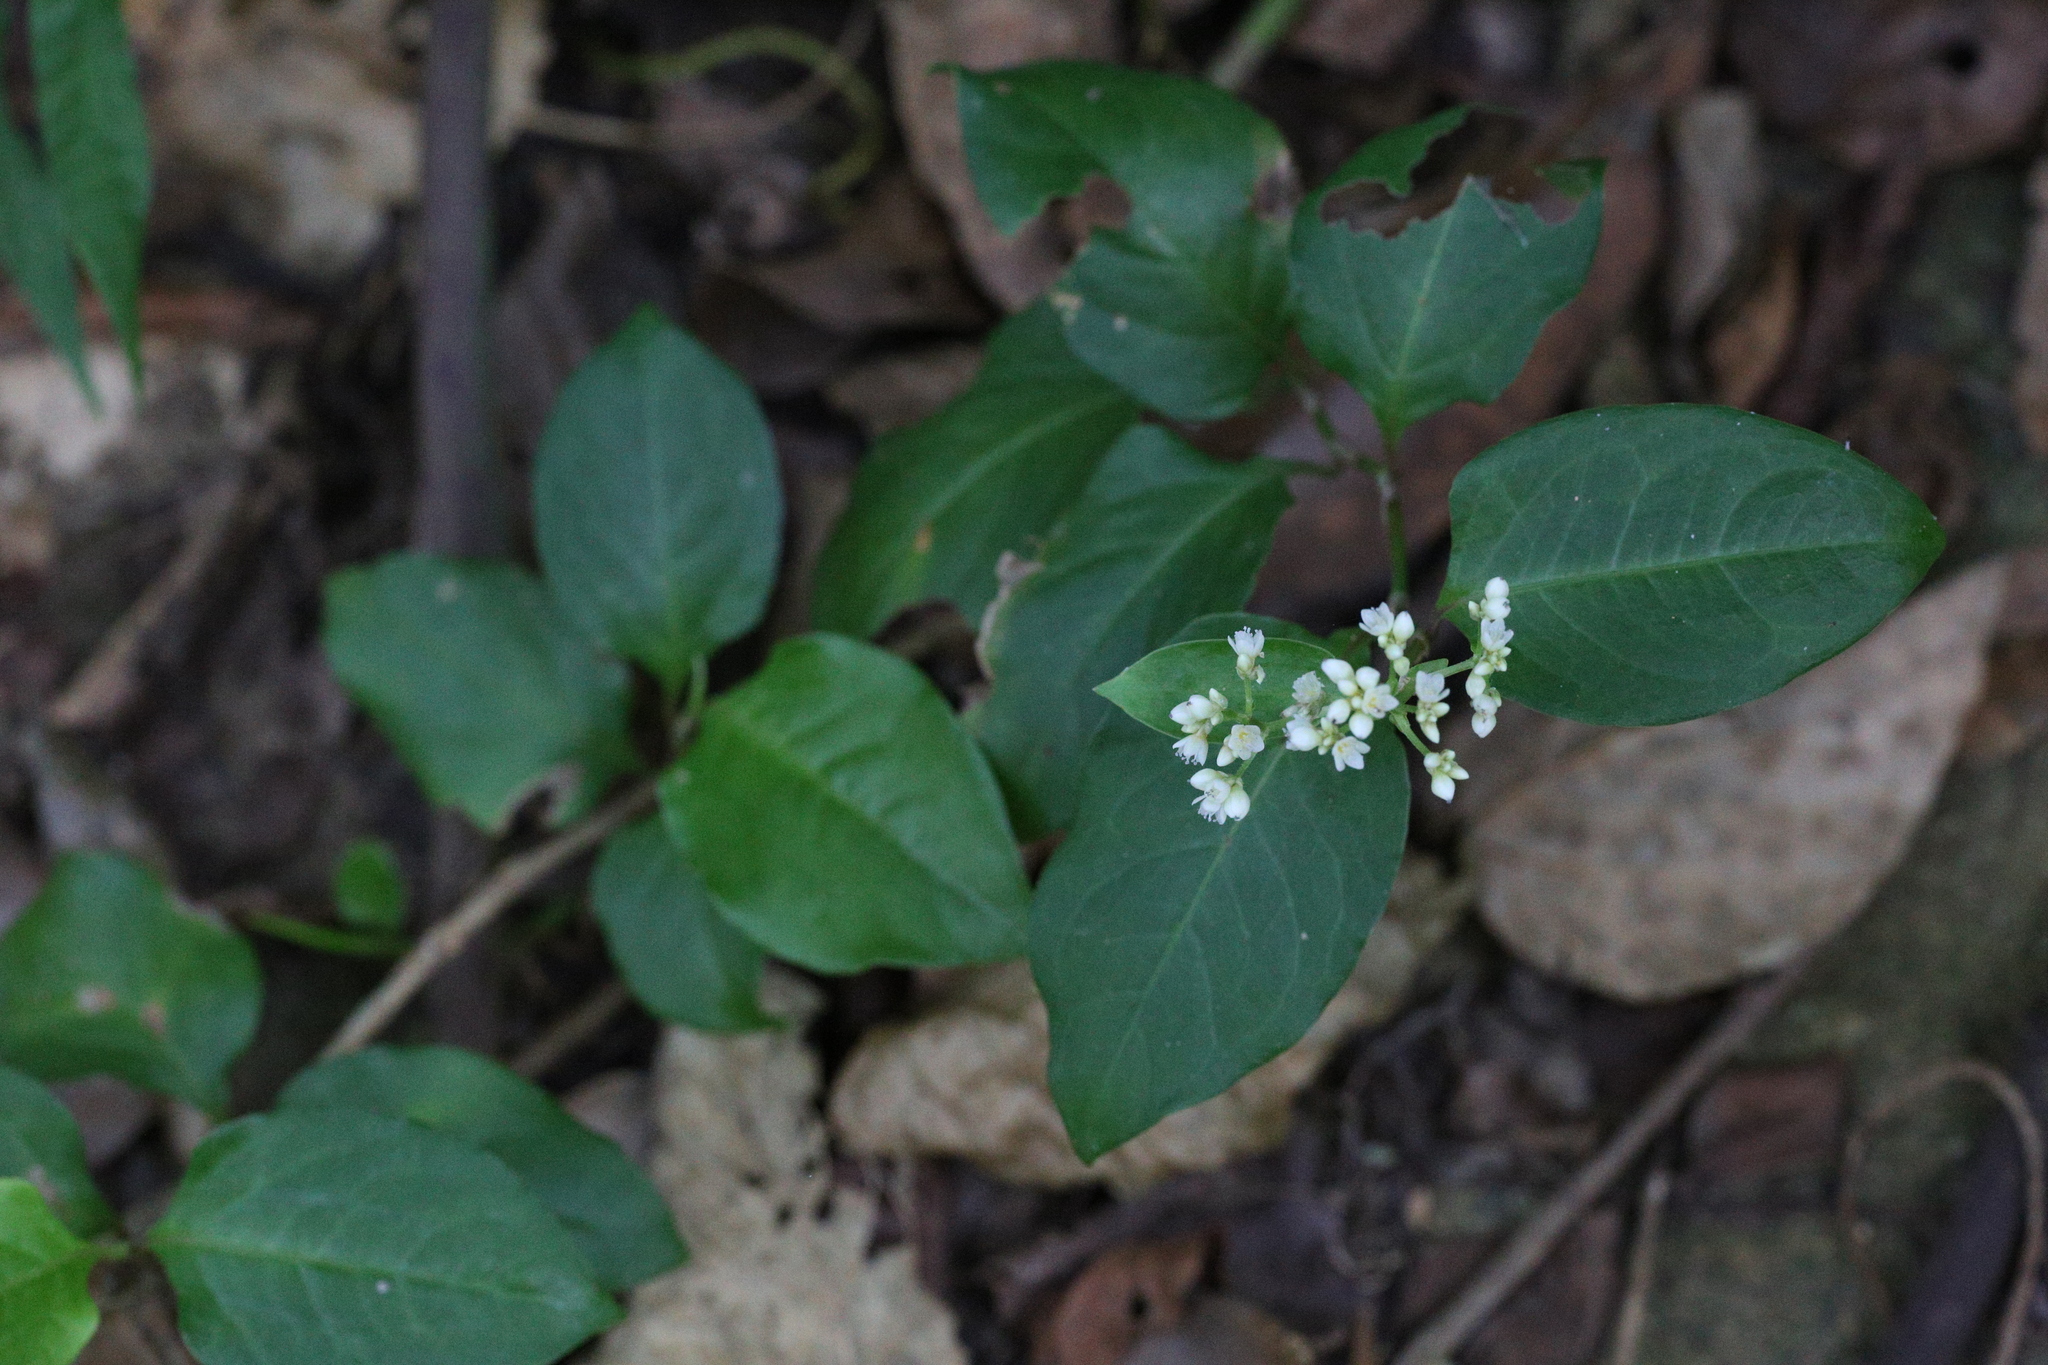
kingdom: Plantae
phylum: Tracheophyta
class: Magnoliopsida
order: Caryophyllales
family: Polygonaceae
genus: Persicaria
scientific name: Persicaria chinensis
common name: Chinese knotweed
